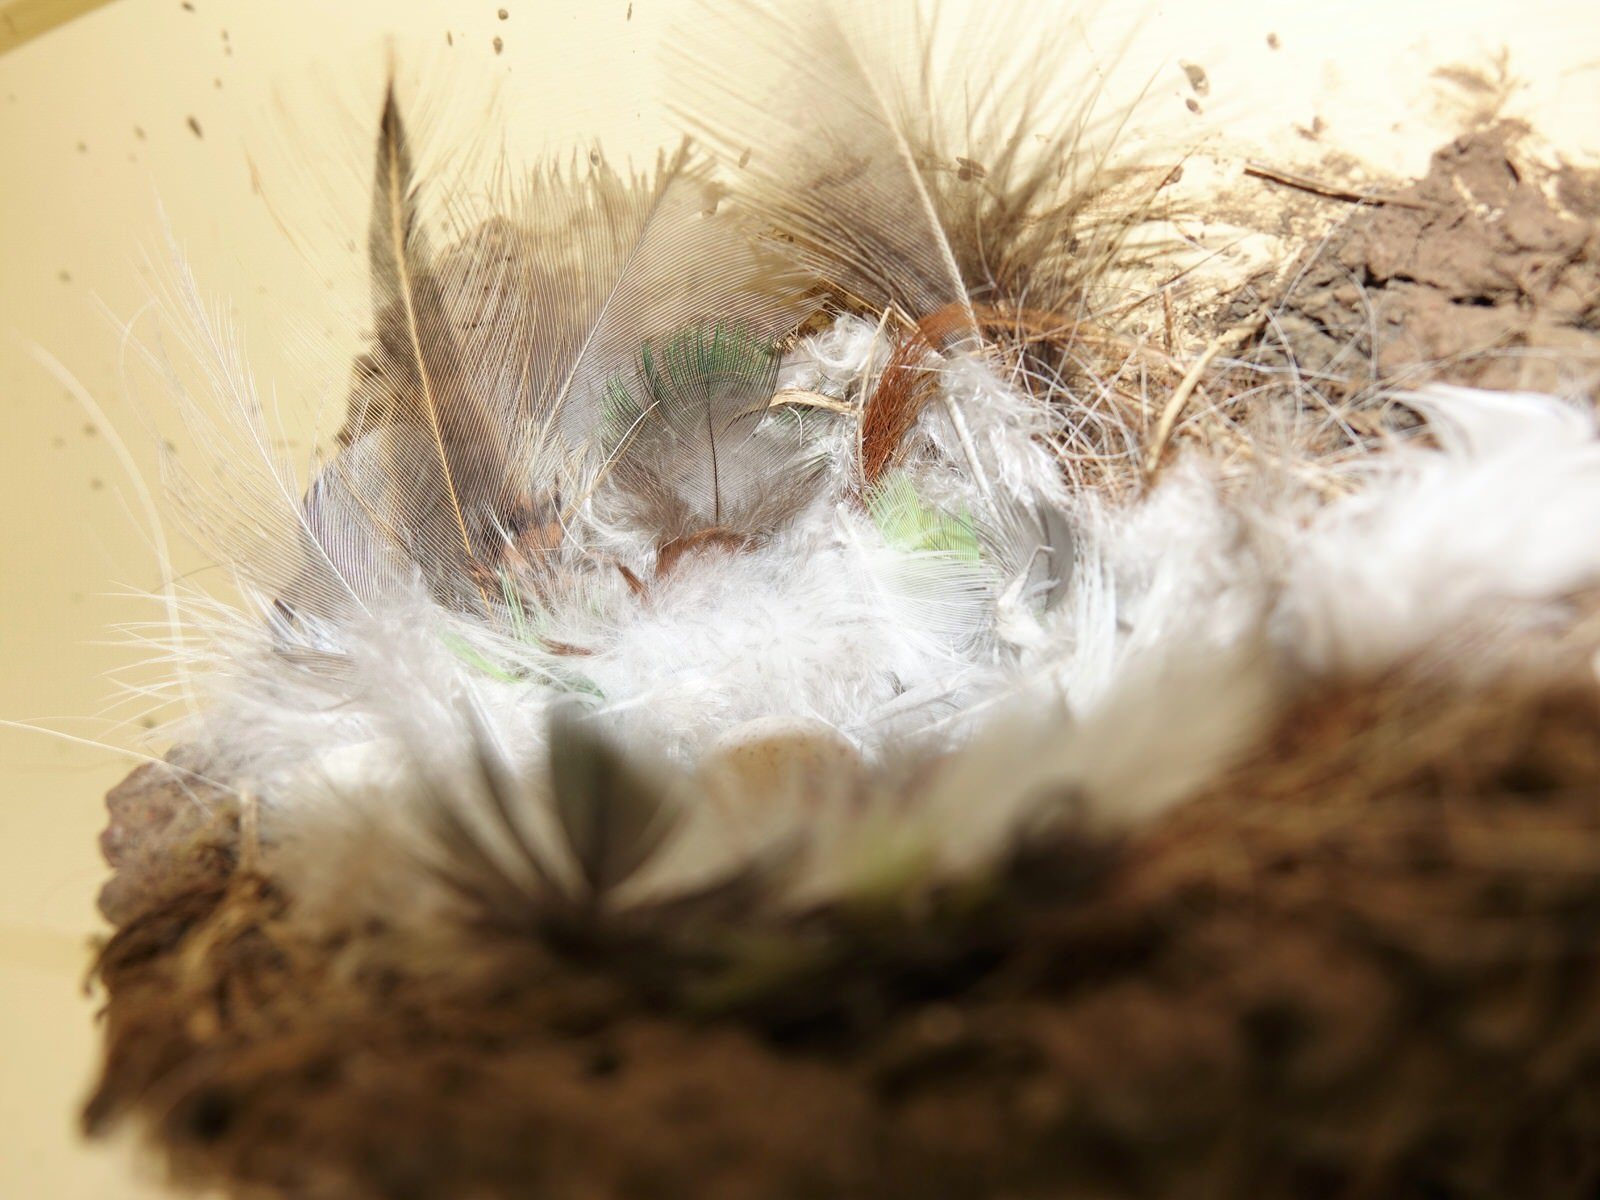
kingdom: Animalia
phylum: Chordata
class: Aves
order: Passeriformes
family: Hirundinidae
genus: Hirundo
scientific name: Hirundo neoxena
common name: Welcome swallow
